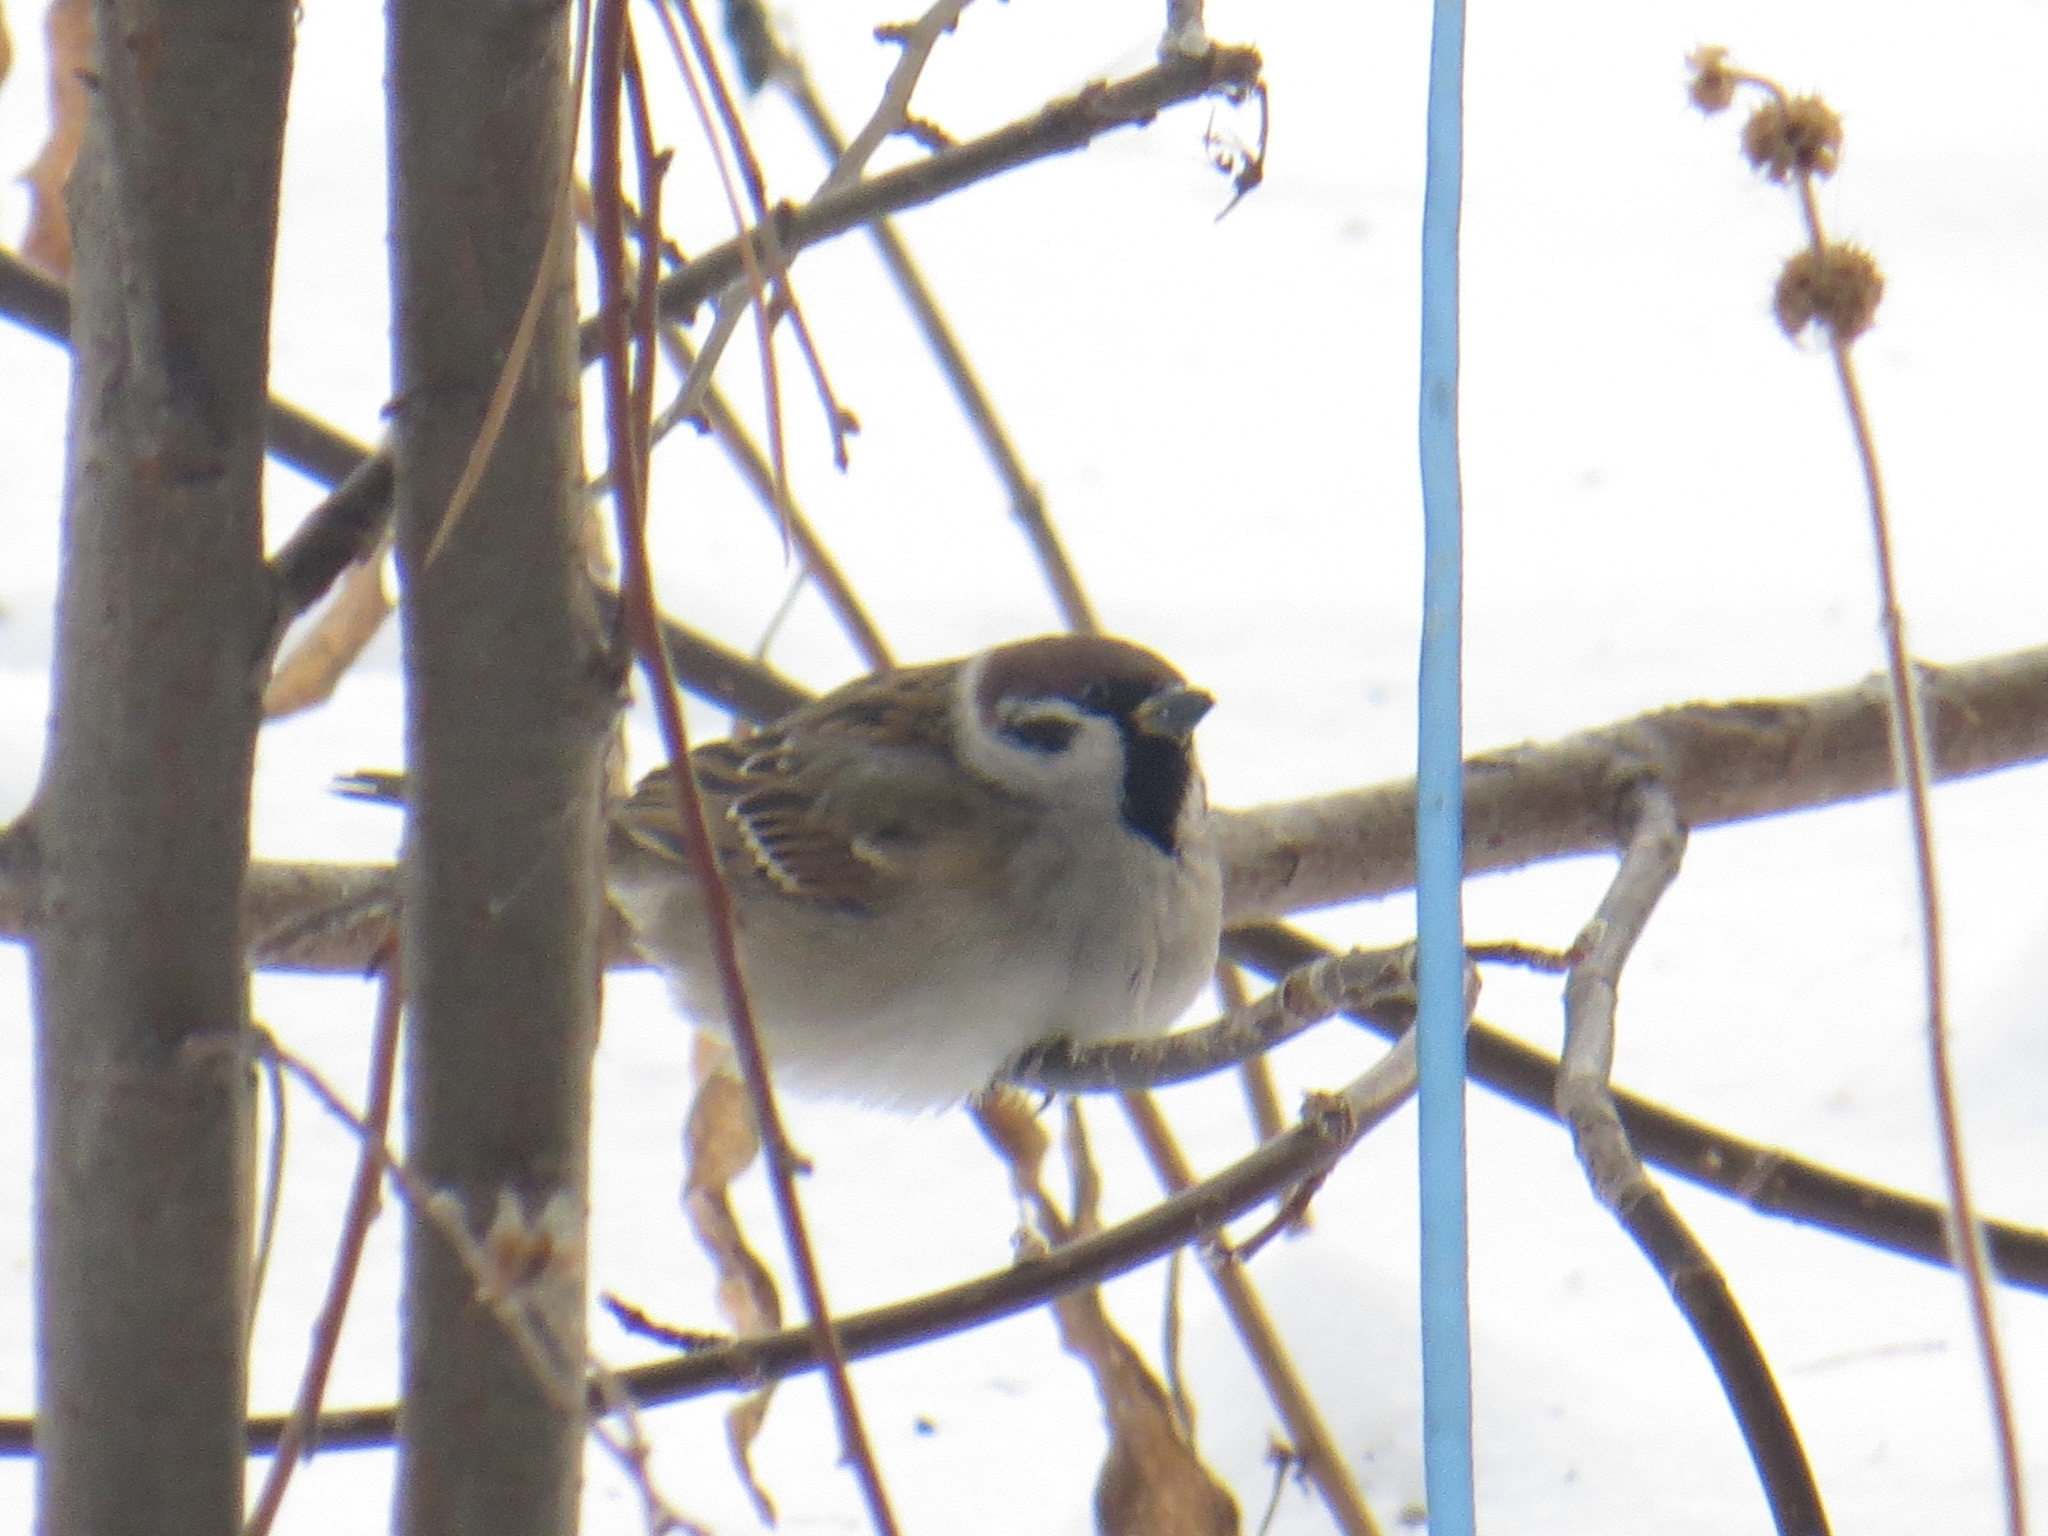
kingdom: Animalia
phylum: Chordata
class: Aves
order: Passeriformes
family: Passeridae
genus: Passer
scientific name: Passer montanus
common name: Eurasian tree sparrow
